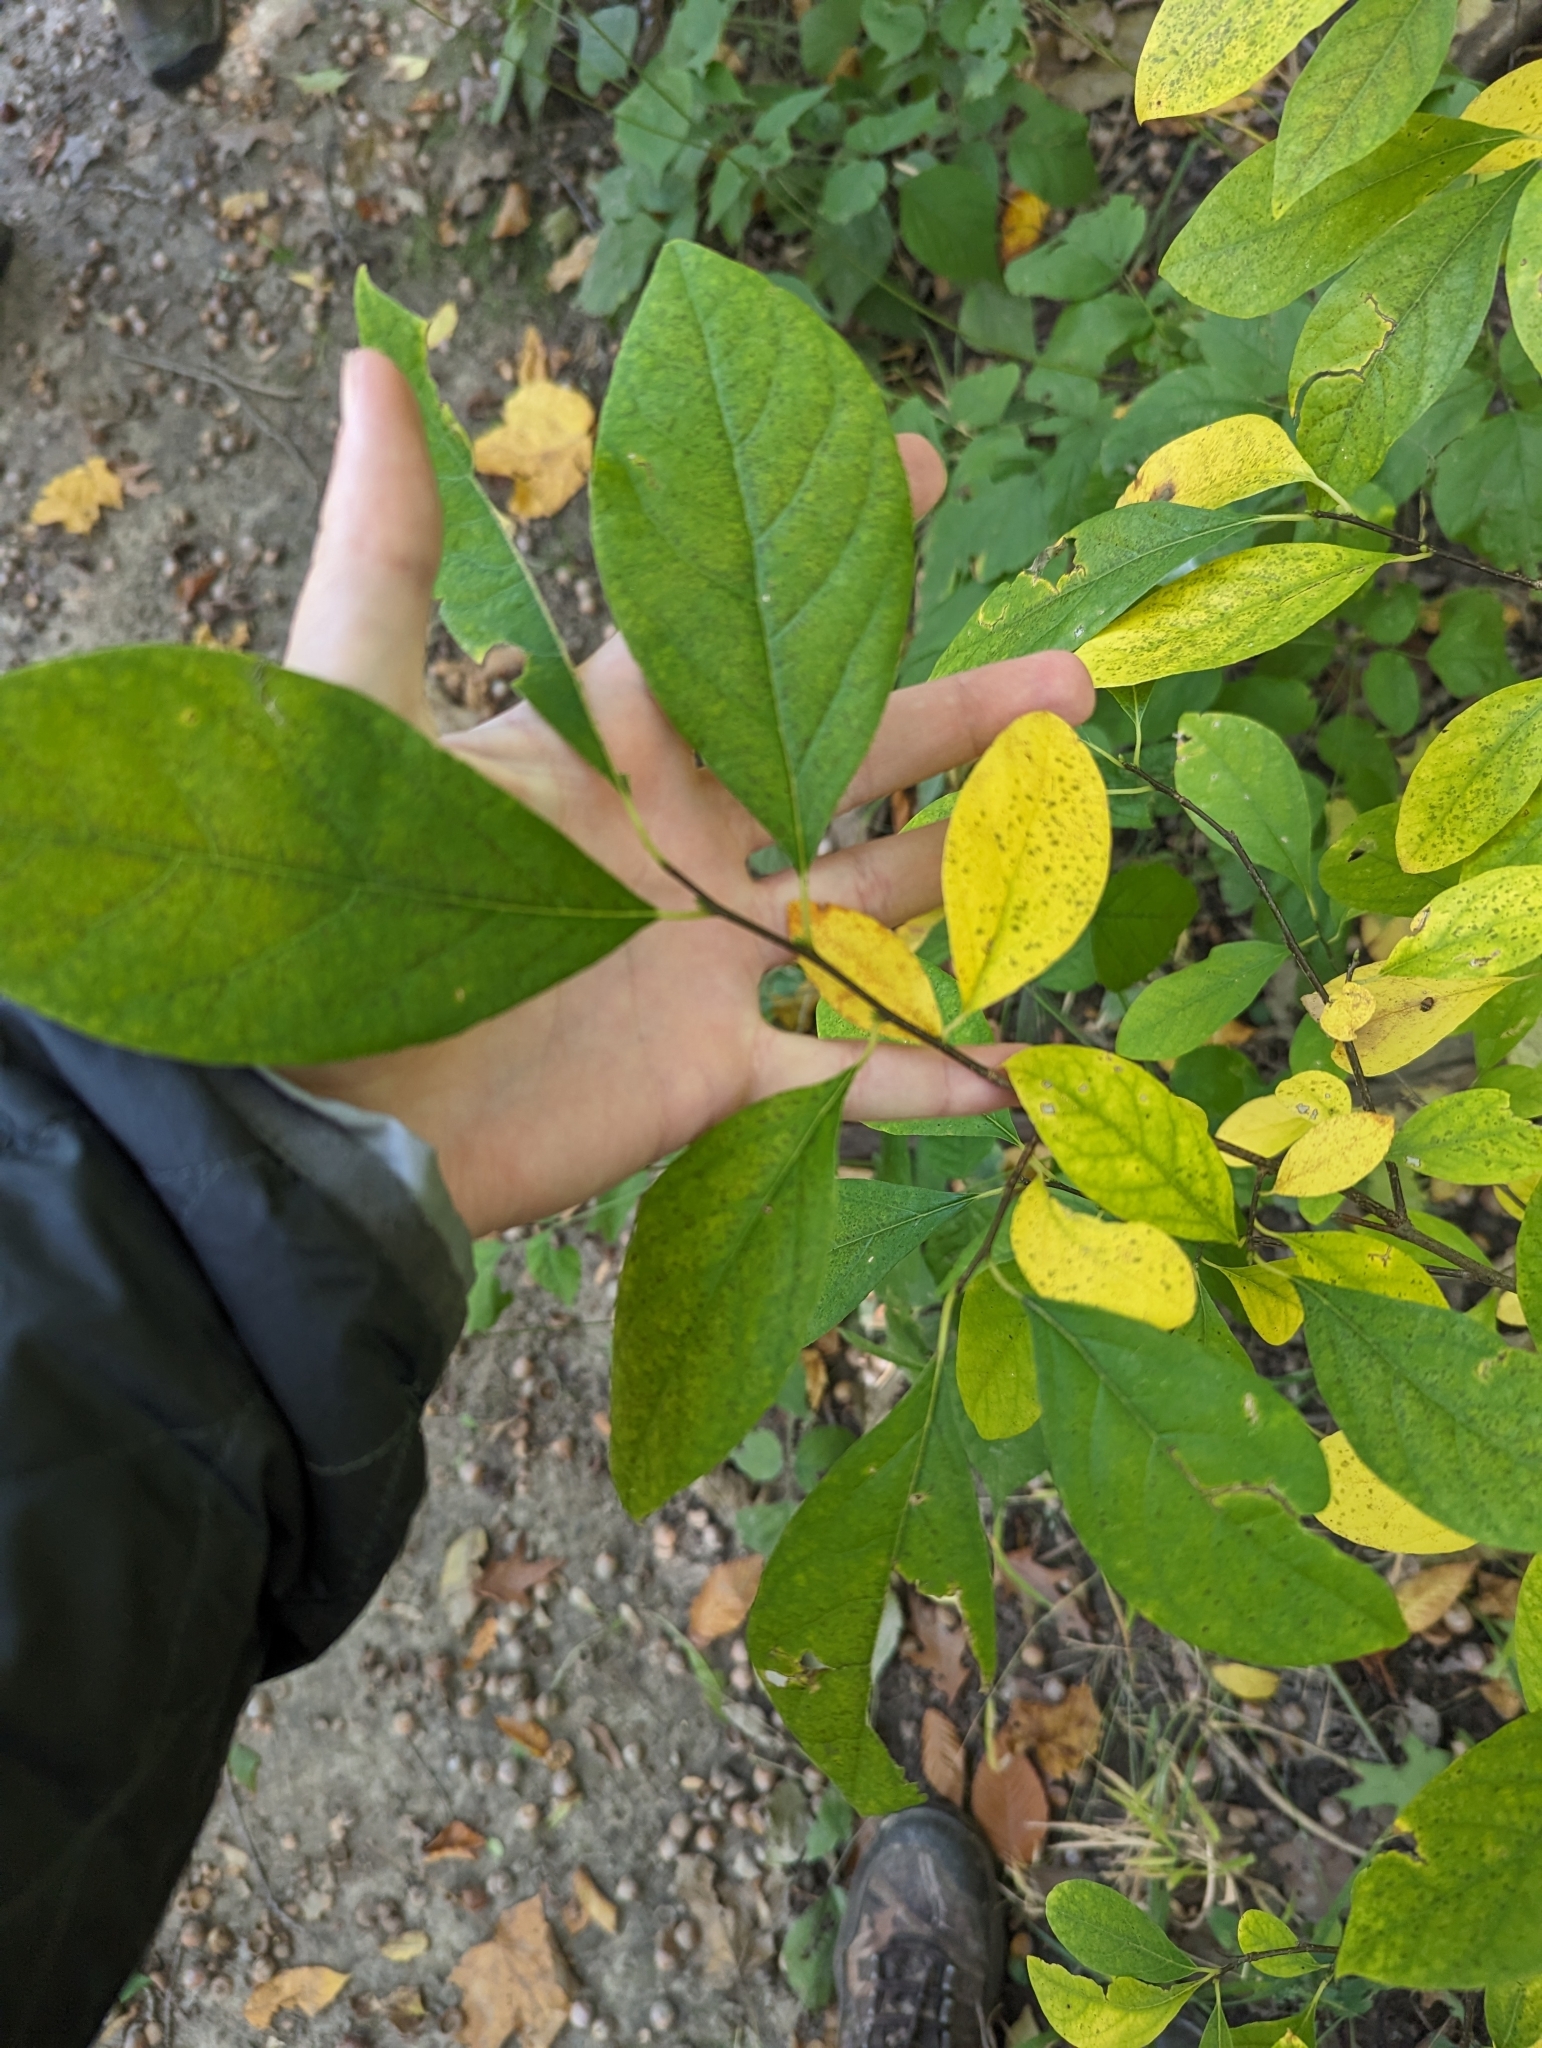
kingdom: Plantae
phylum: Tracheophyta
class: Magnoliopsida
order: Laurales
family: Lauraceae
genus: Lindera
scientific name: Lindera benzoin
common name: Spicebush
